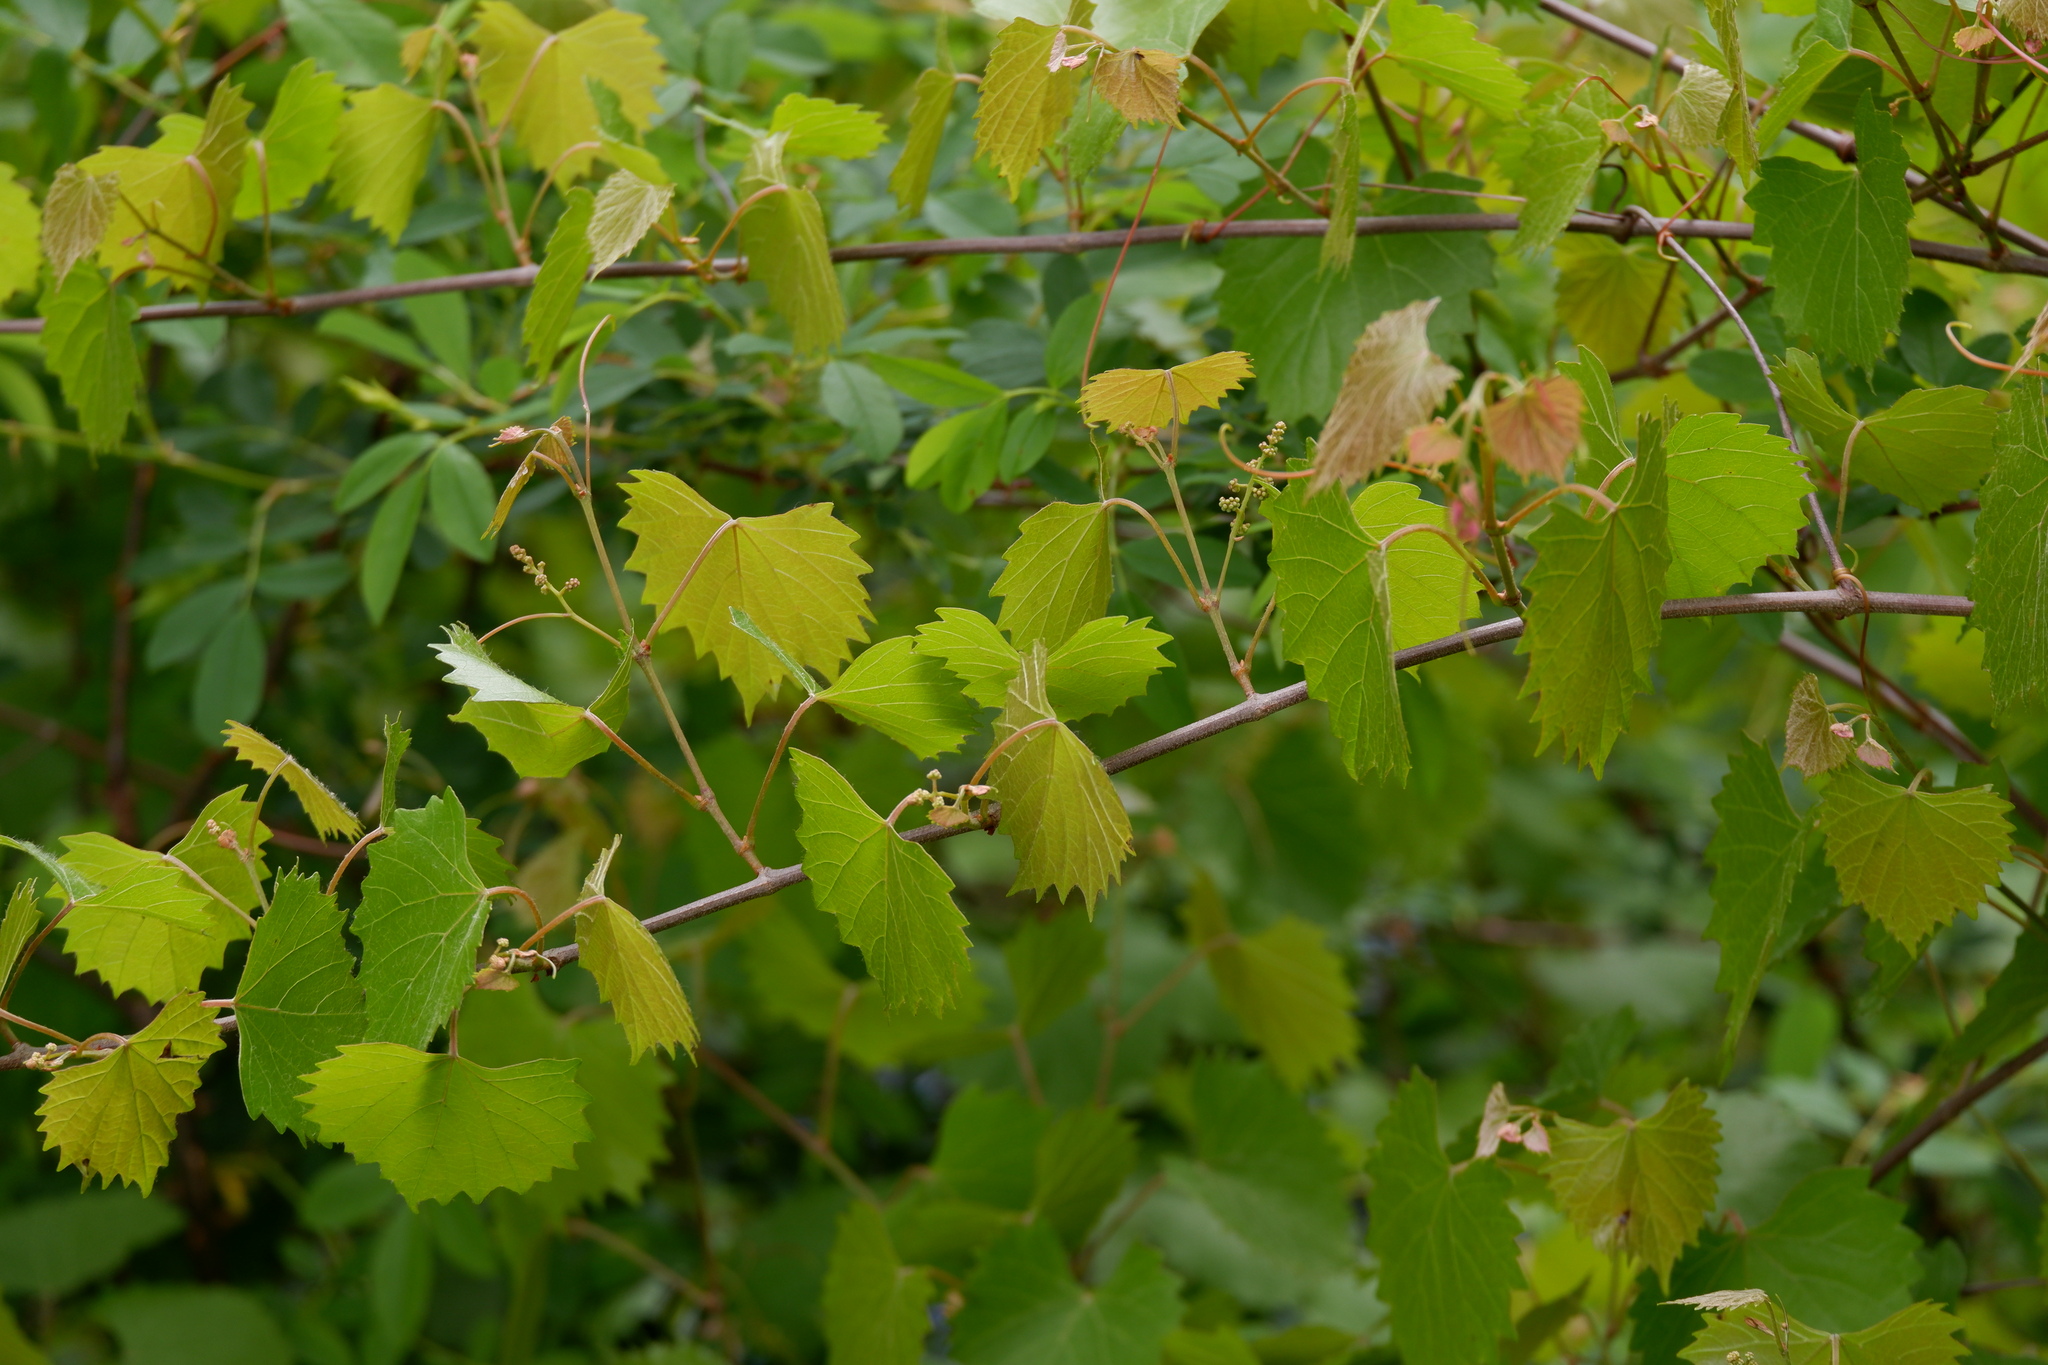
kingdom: Plantae
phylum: Tracheophyta
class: Magnoliopsida
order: Vitales
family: Vitaceae
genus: Vitis
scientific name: Vitis rotundifolia
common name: Muscadine grape
